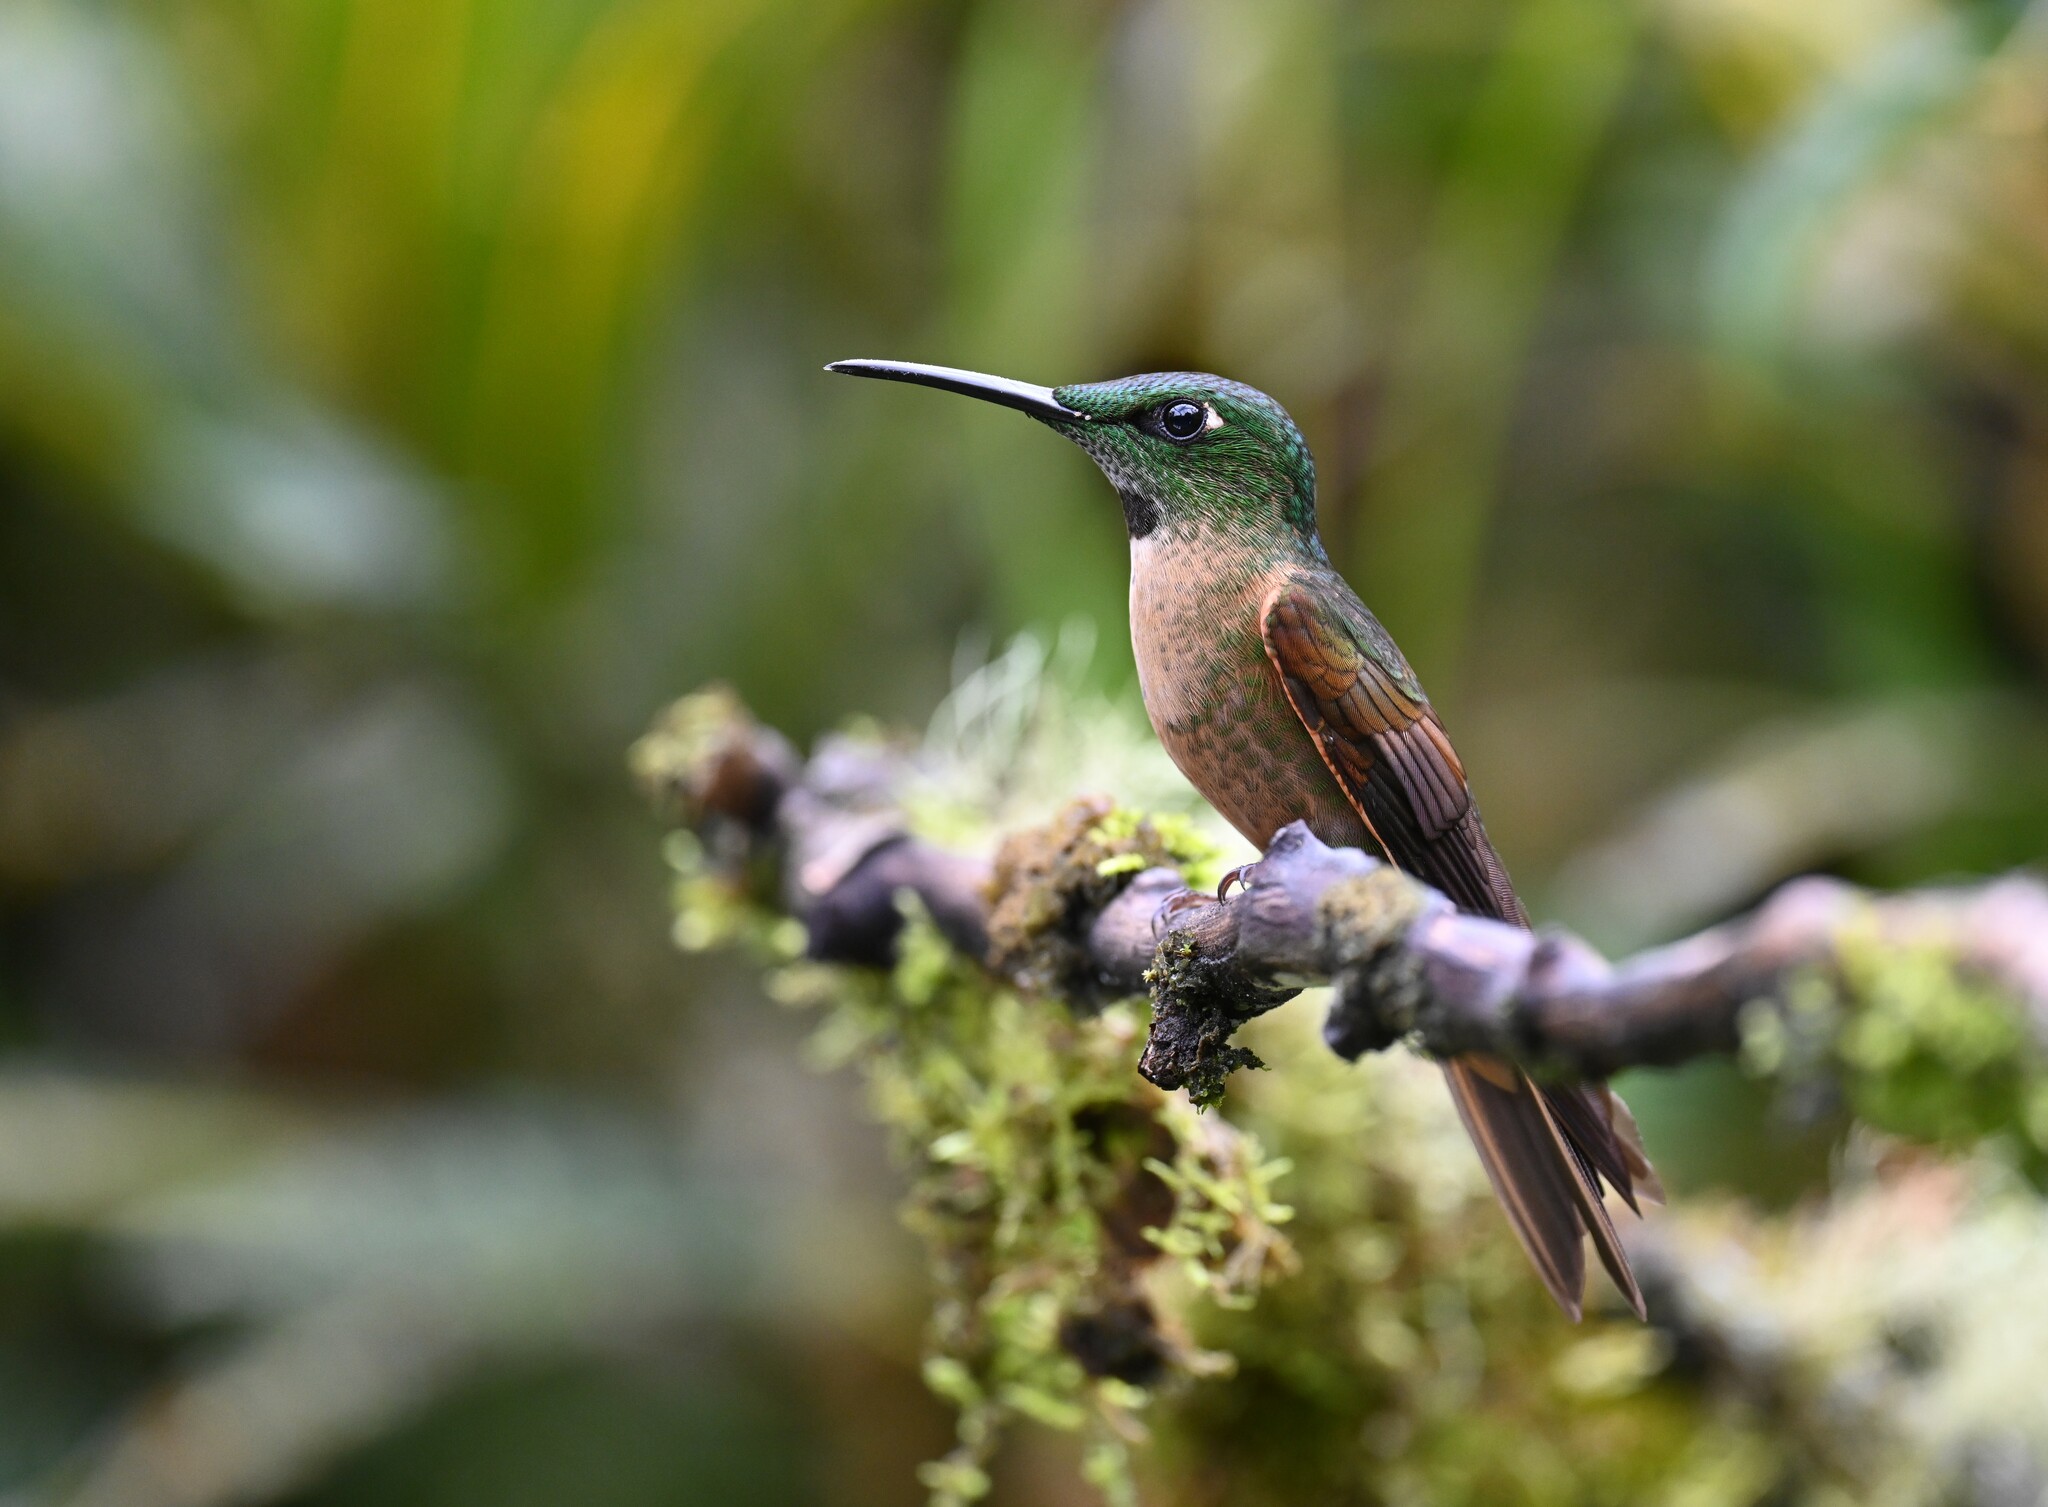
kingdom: Animalia
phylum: Chordata
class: Aves
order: Apodiformes
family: Trochilidae
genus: Heliodoxa
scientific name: Heliodoxa rubinoides
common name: Fawn-breasted brilliant
